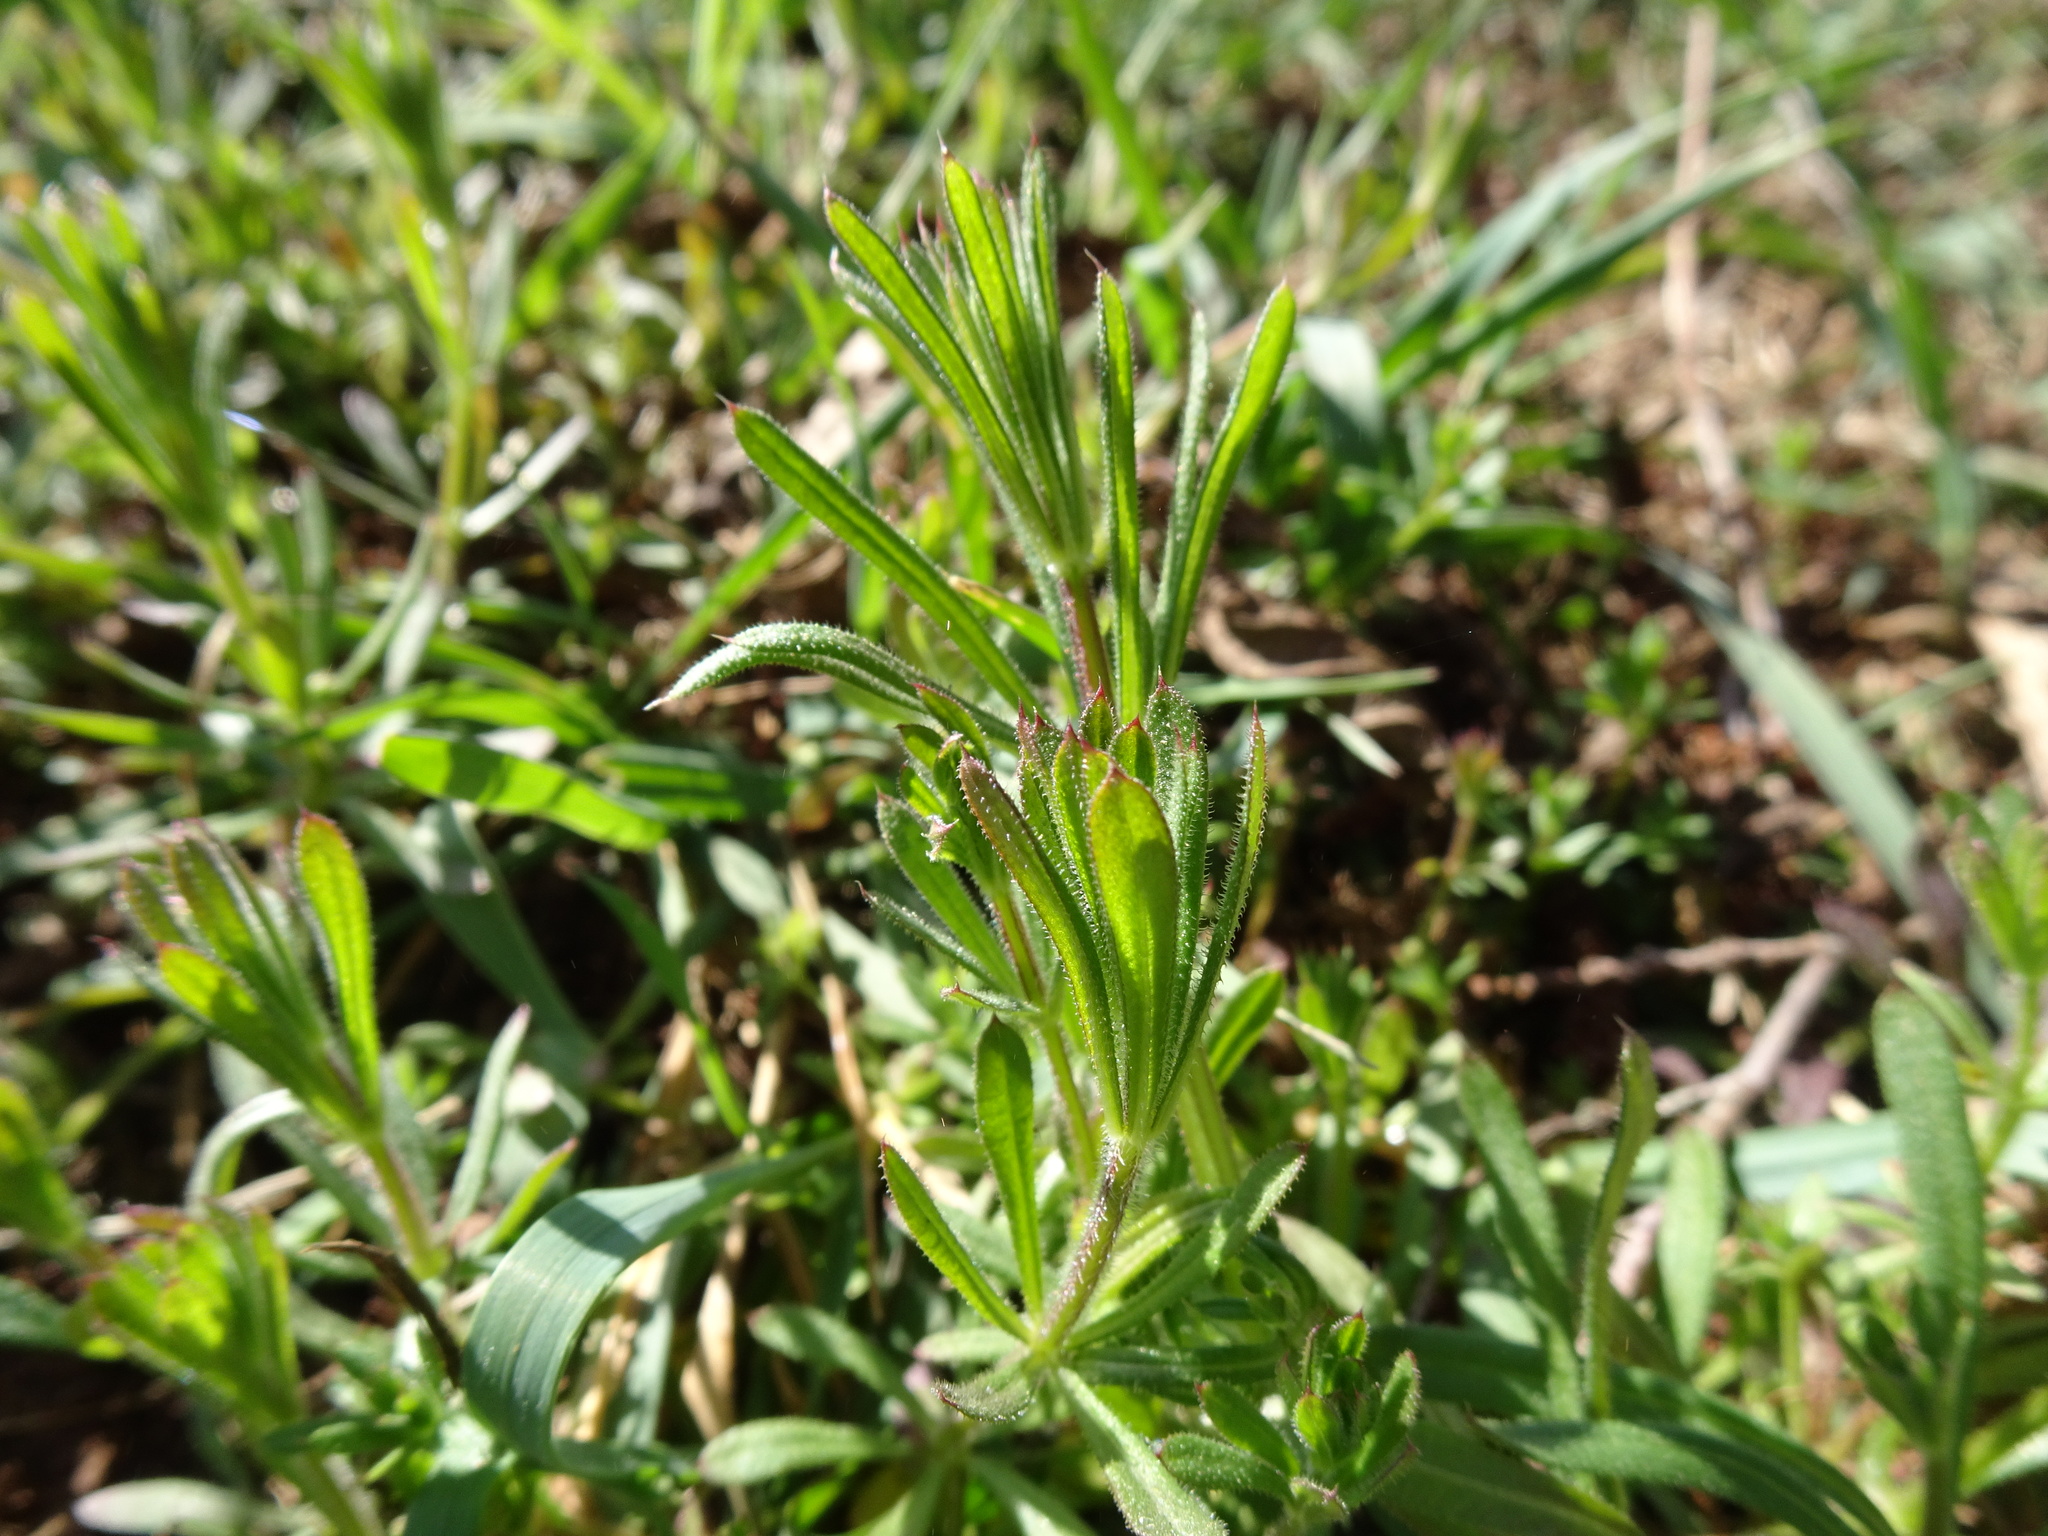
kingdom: Plantae
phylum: Tracheophyta
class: Magnoliopsida
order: Gentianales
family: Rubiaceae
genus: Galium
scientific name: Galium aparine
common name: Cleavers
